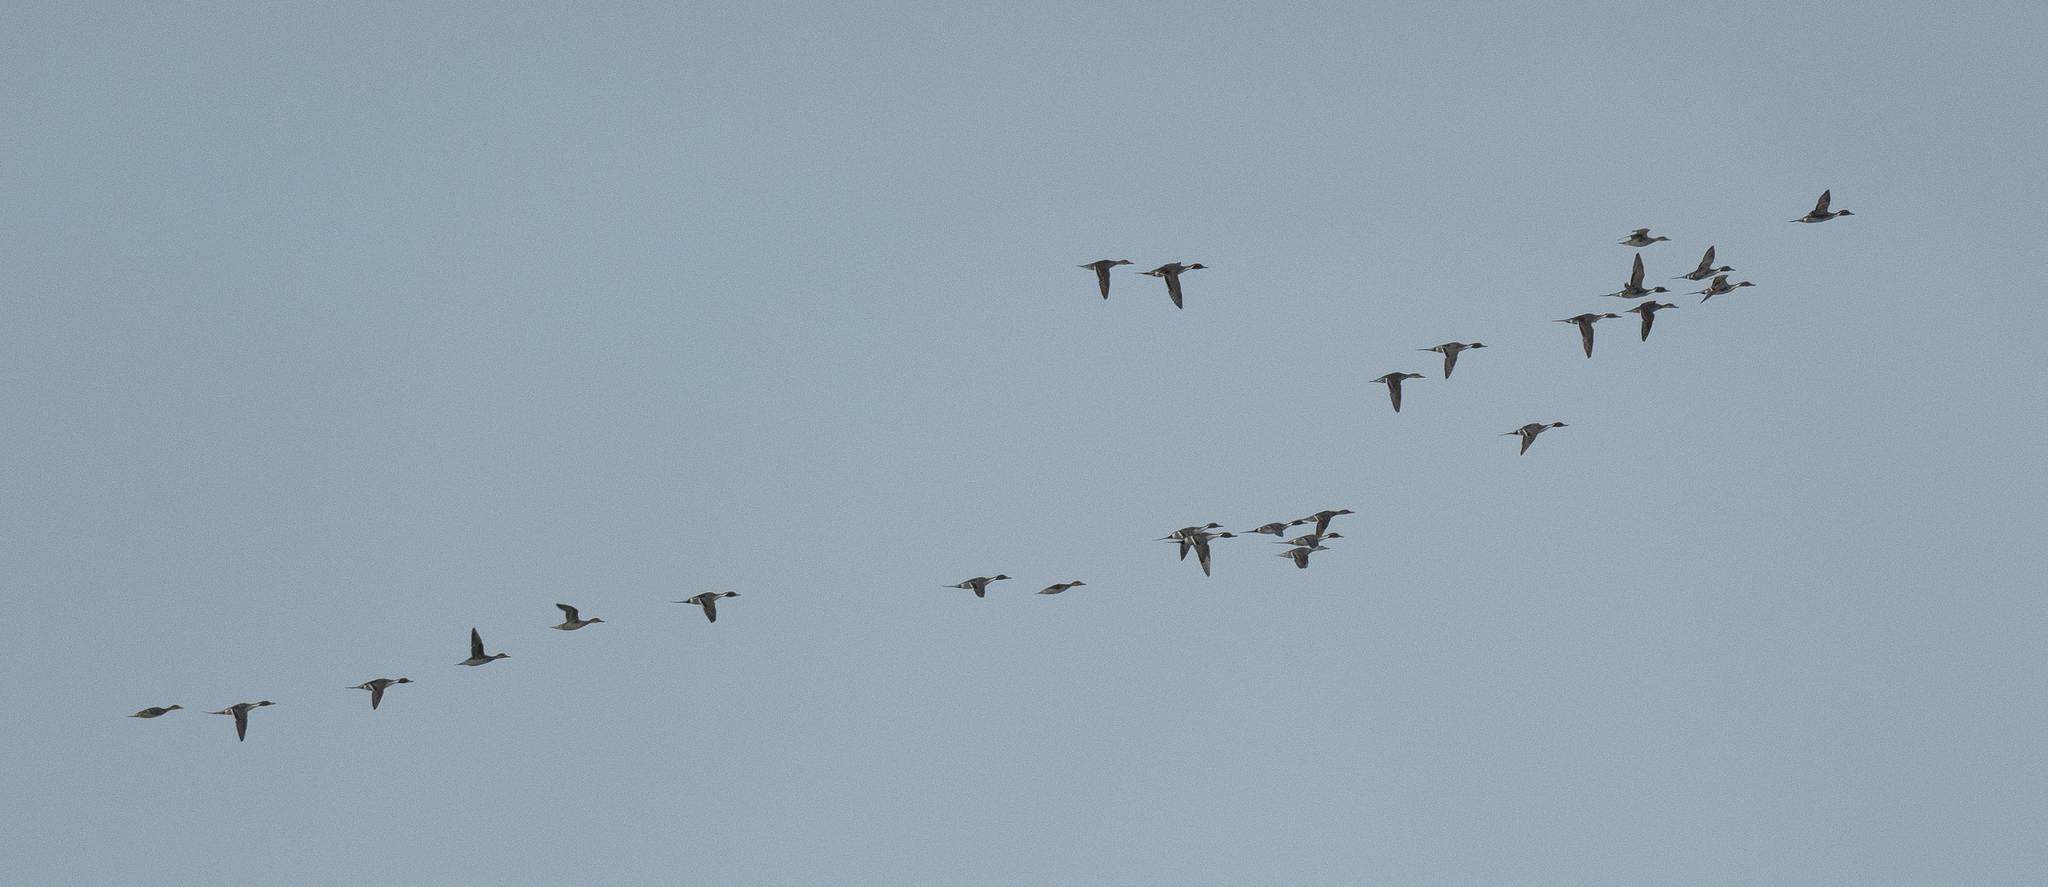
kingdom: Animalia
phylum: Chordata
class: Aves
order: Anseriformes
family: Anatidae
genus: Anas
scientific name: Anas acuta
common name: Northern pintail
